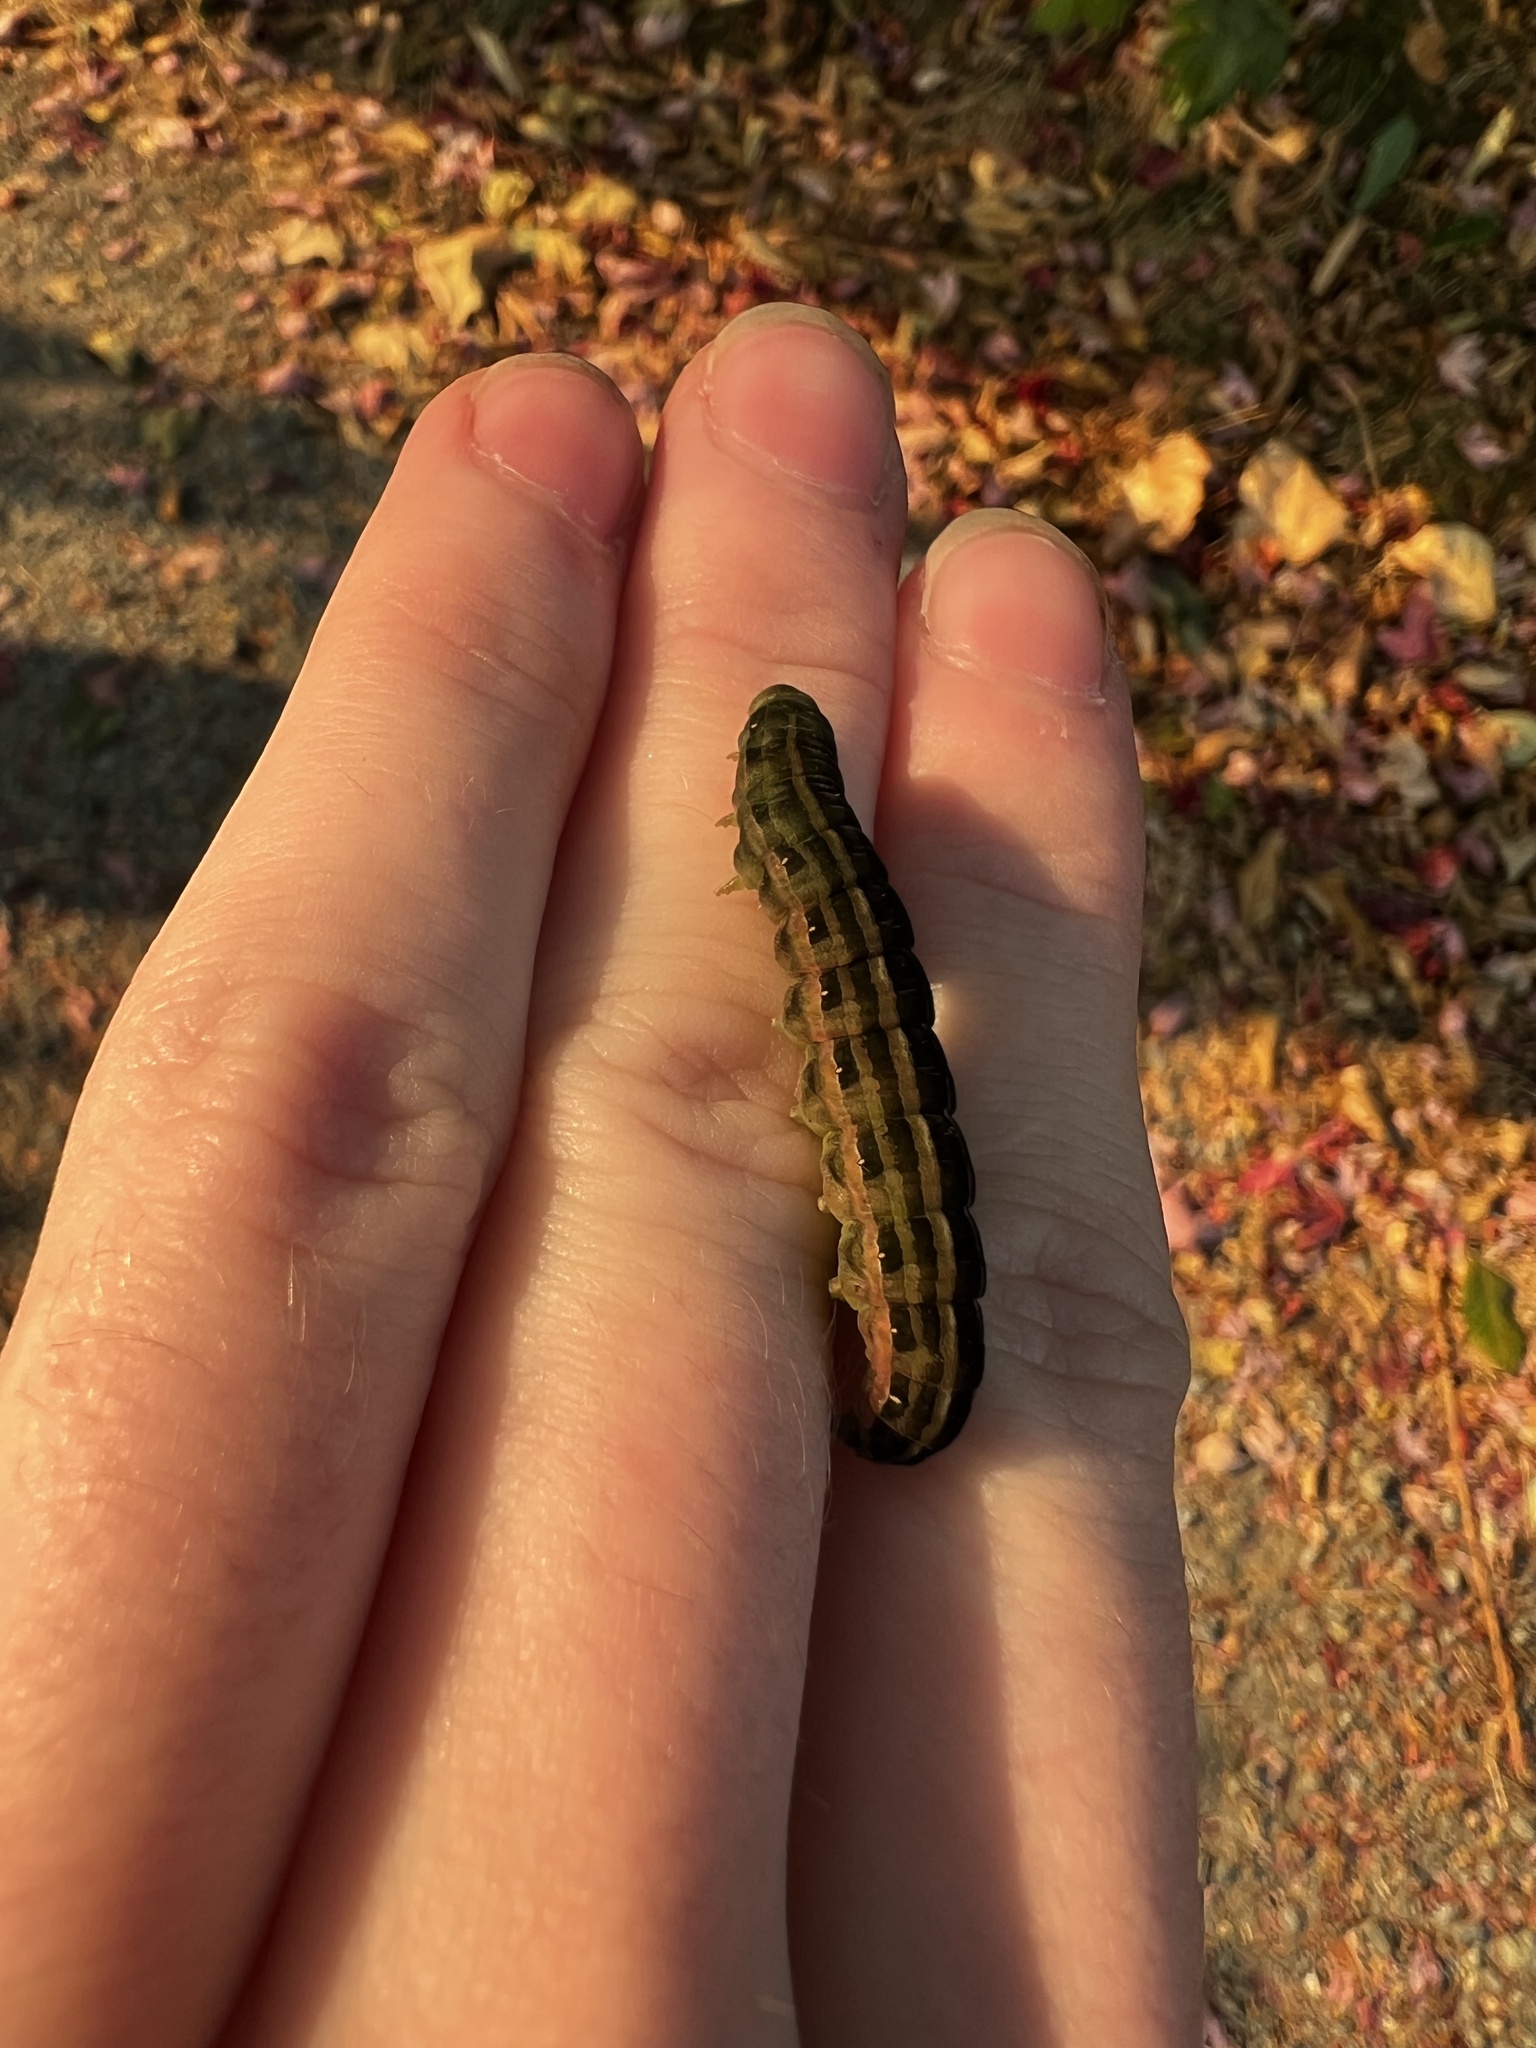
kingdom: Animalia
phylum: Arthropoda
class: Insecta
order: Lepidoptera
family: Noctuidae
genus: Dargida
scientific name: Dargida procinctus
